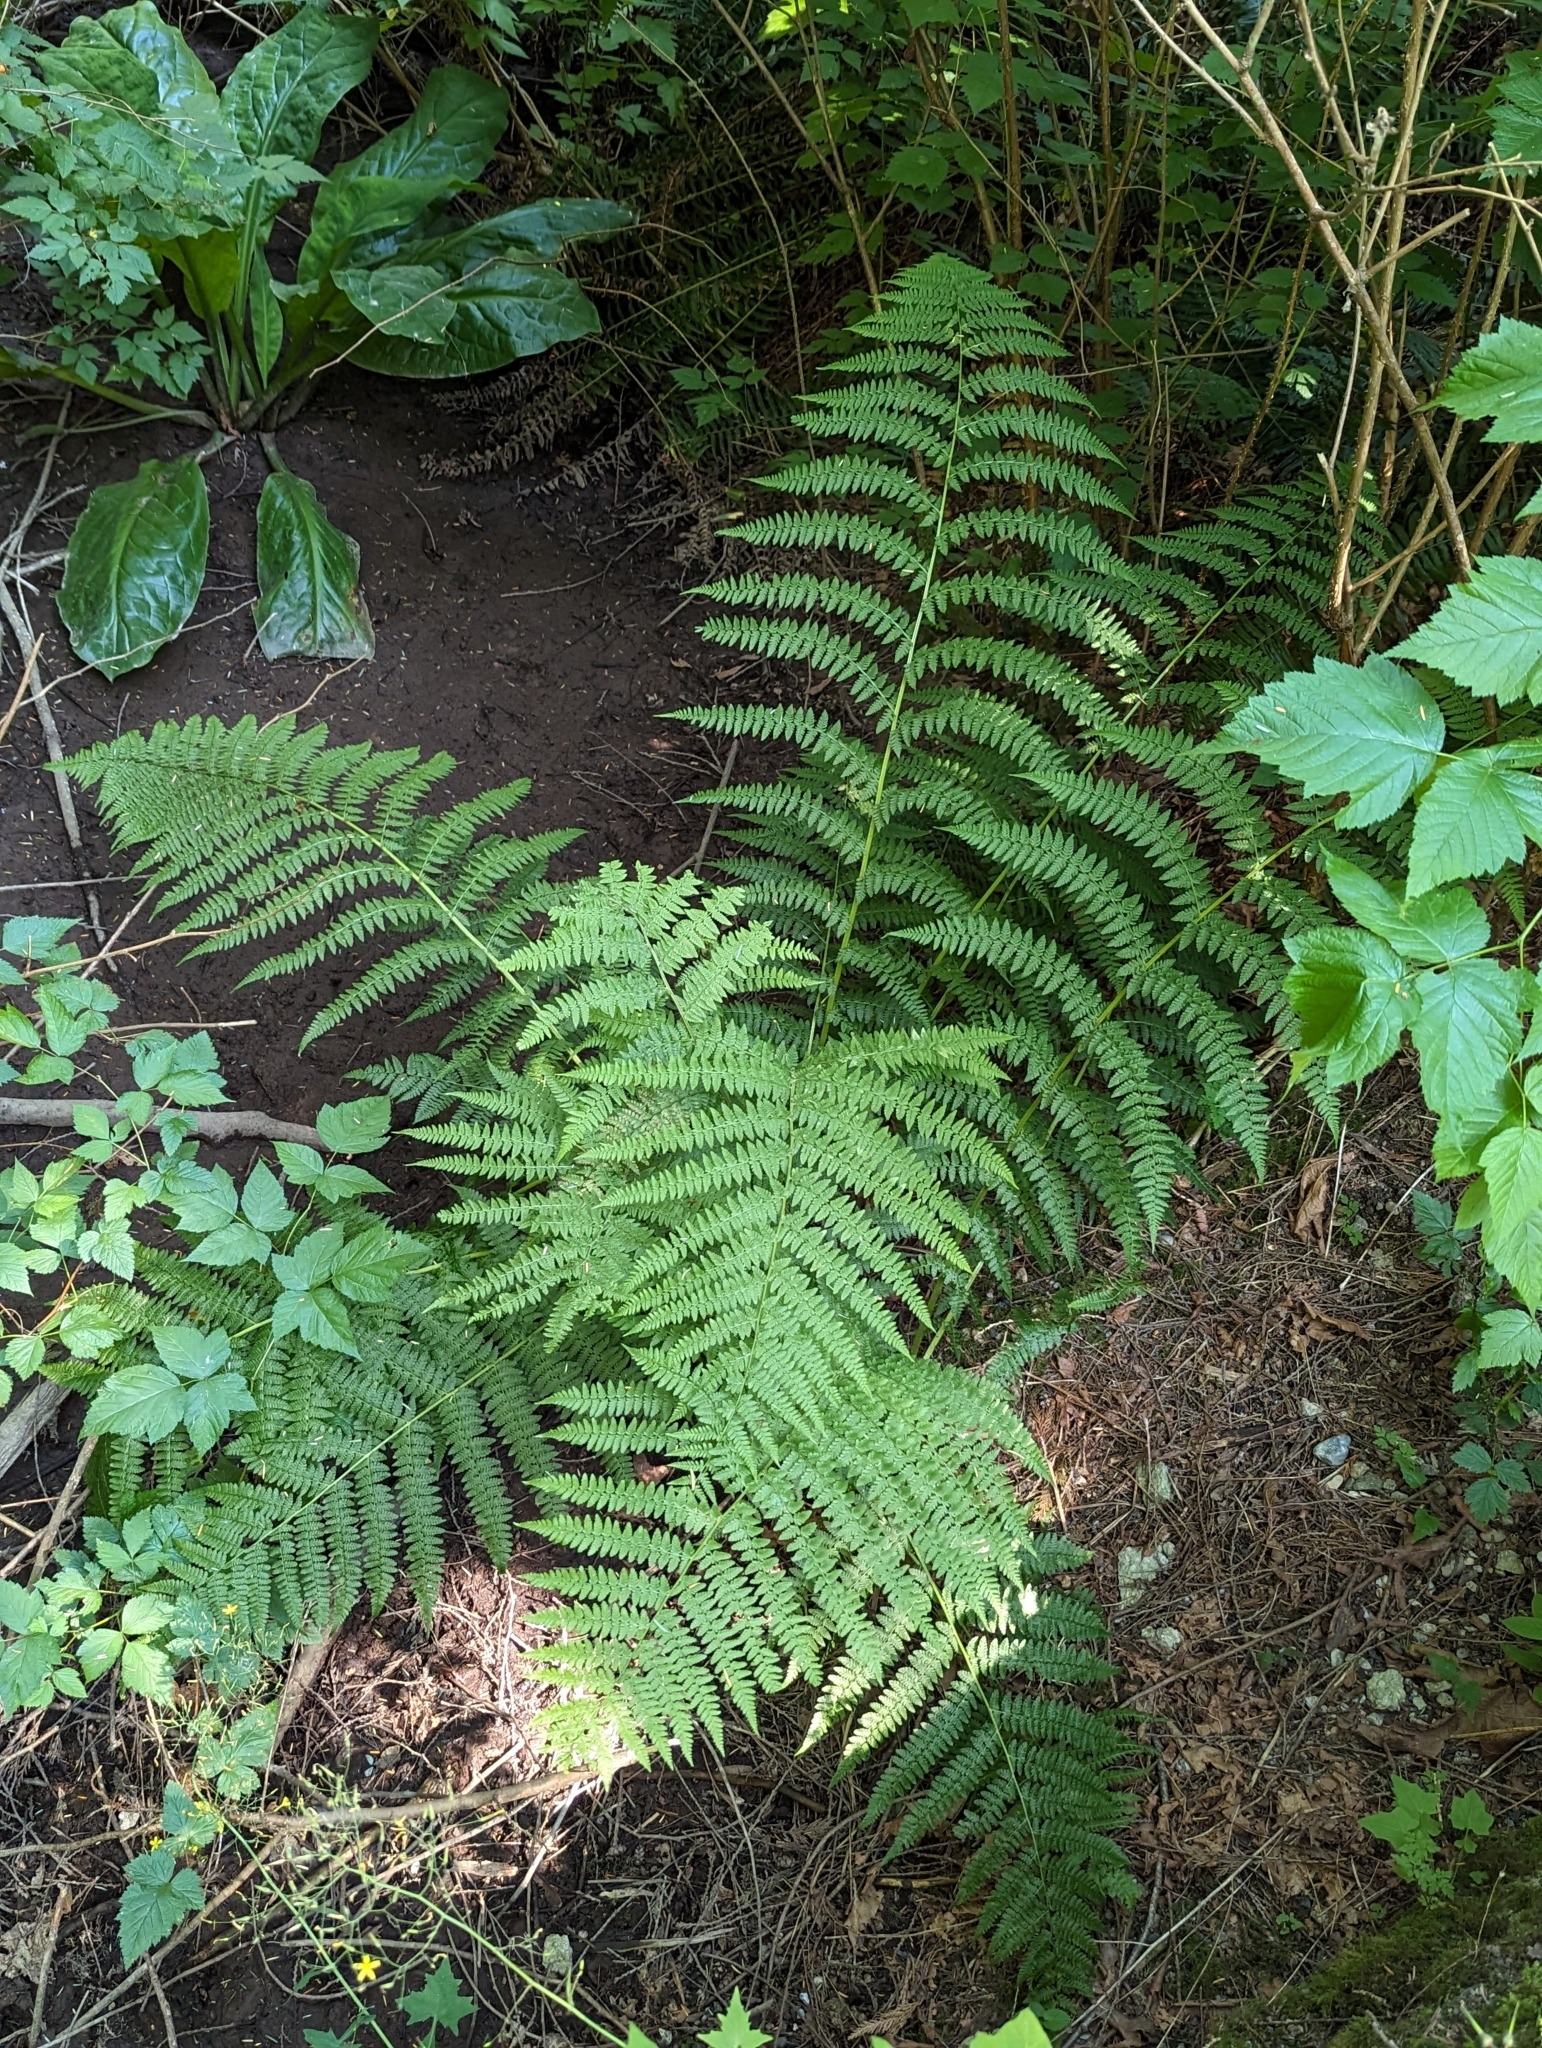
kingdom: Plantae
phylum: Tracheophyta
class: Polypodiopsida
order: Polypodiales
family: Athyriaceae
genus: Athyrium
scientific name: Athyrium filix-femina
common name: Lady fern
